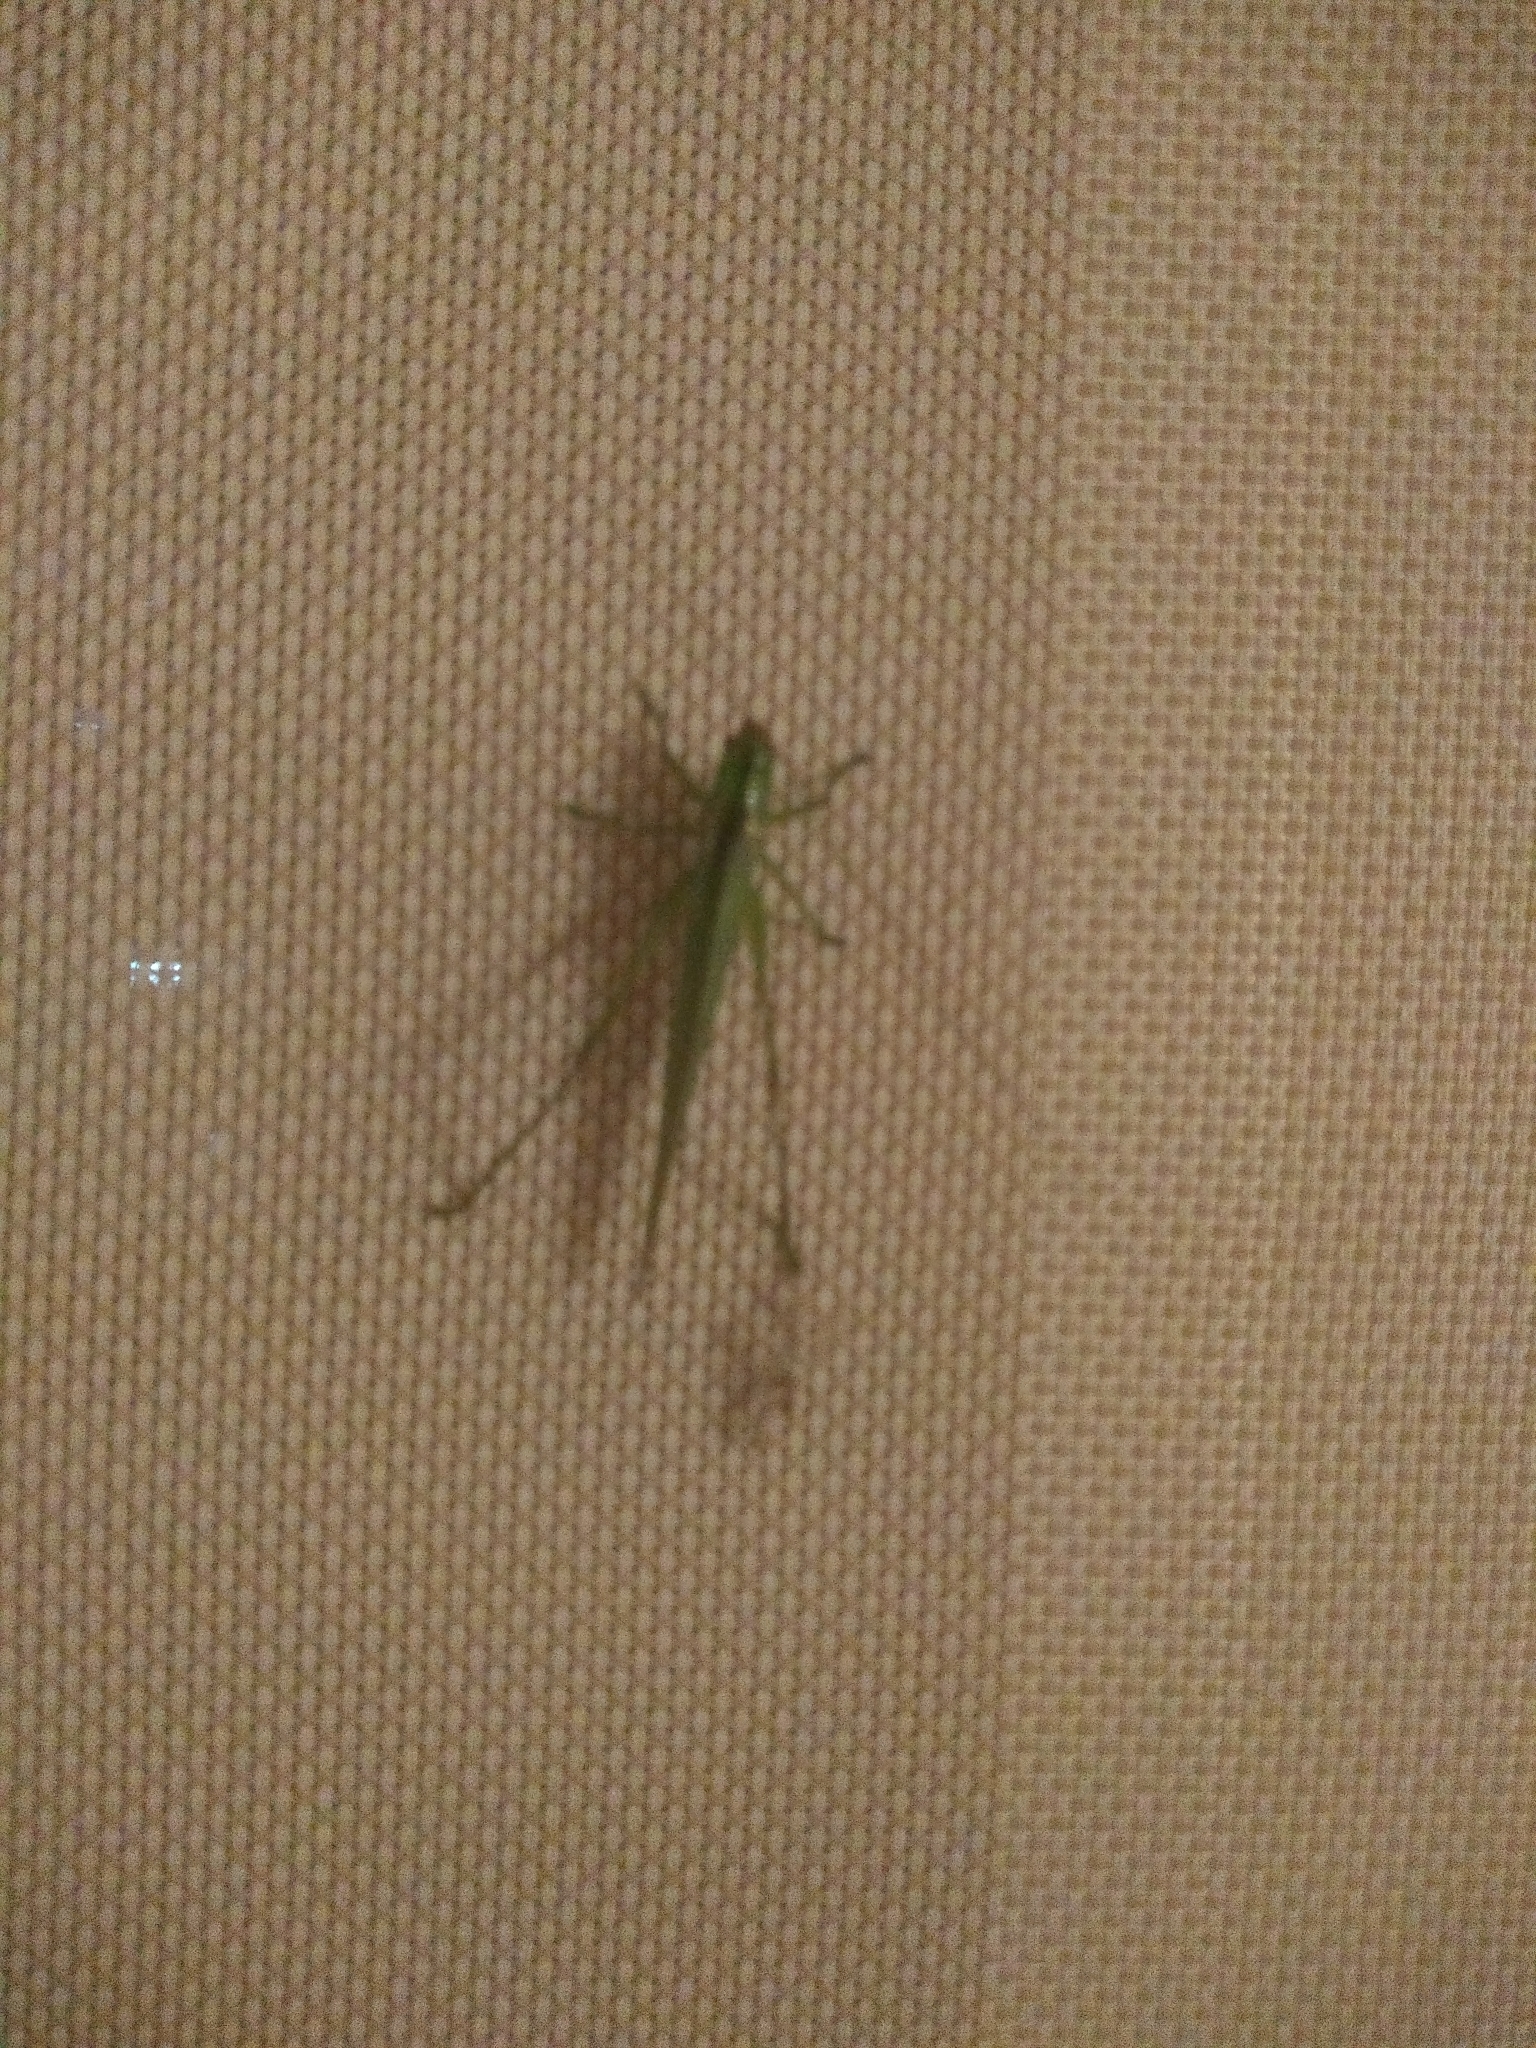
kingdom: Animalia
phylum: Arthropoda
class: Insecta
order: Orthoptera
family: Tettigoniidae
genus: Conocephalus
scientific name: Conocephalus longipes
